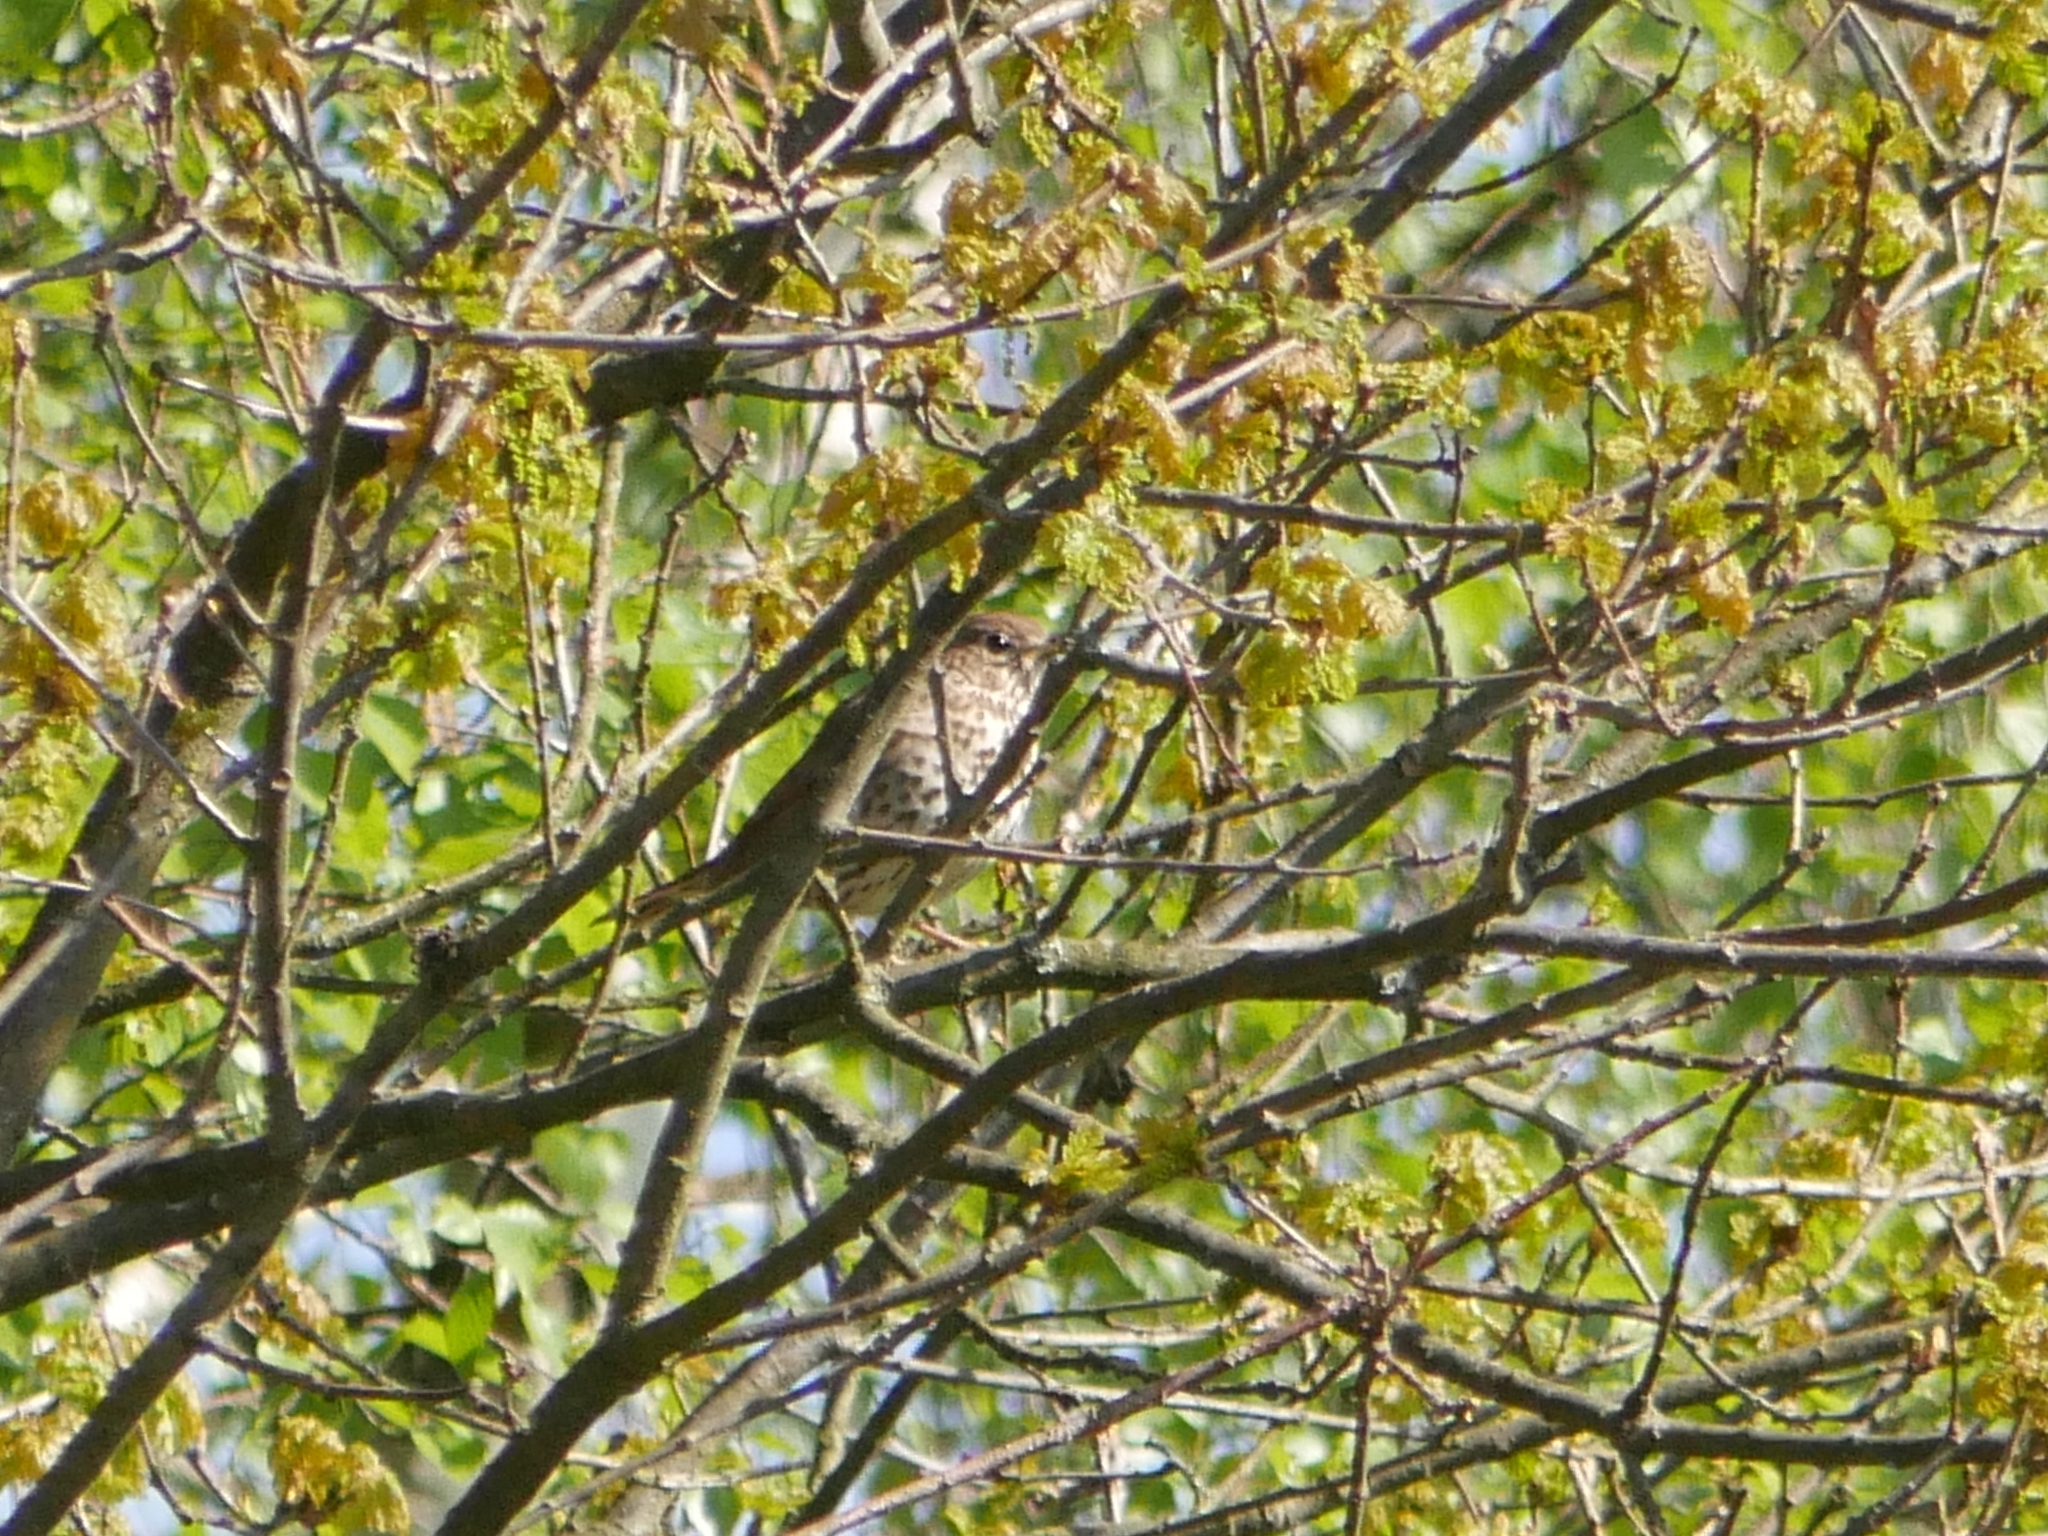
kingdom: Animalia
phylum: Chordata
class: Aves
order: Passeriformes
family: Turdidae
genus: Turdus
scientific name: Turdus philomelos
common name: Song thrush
